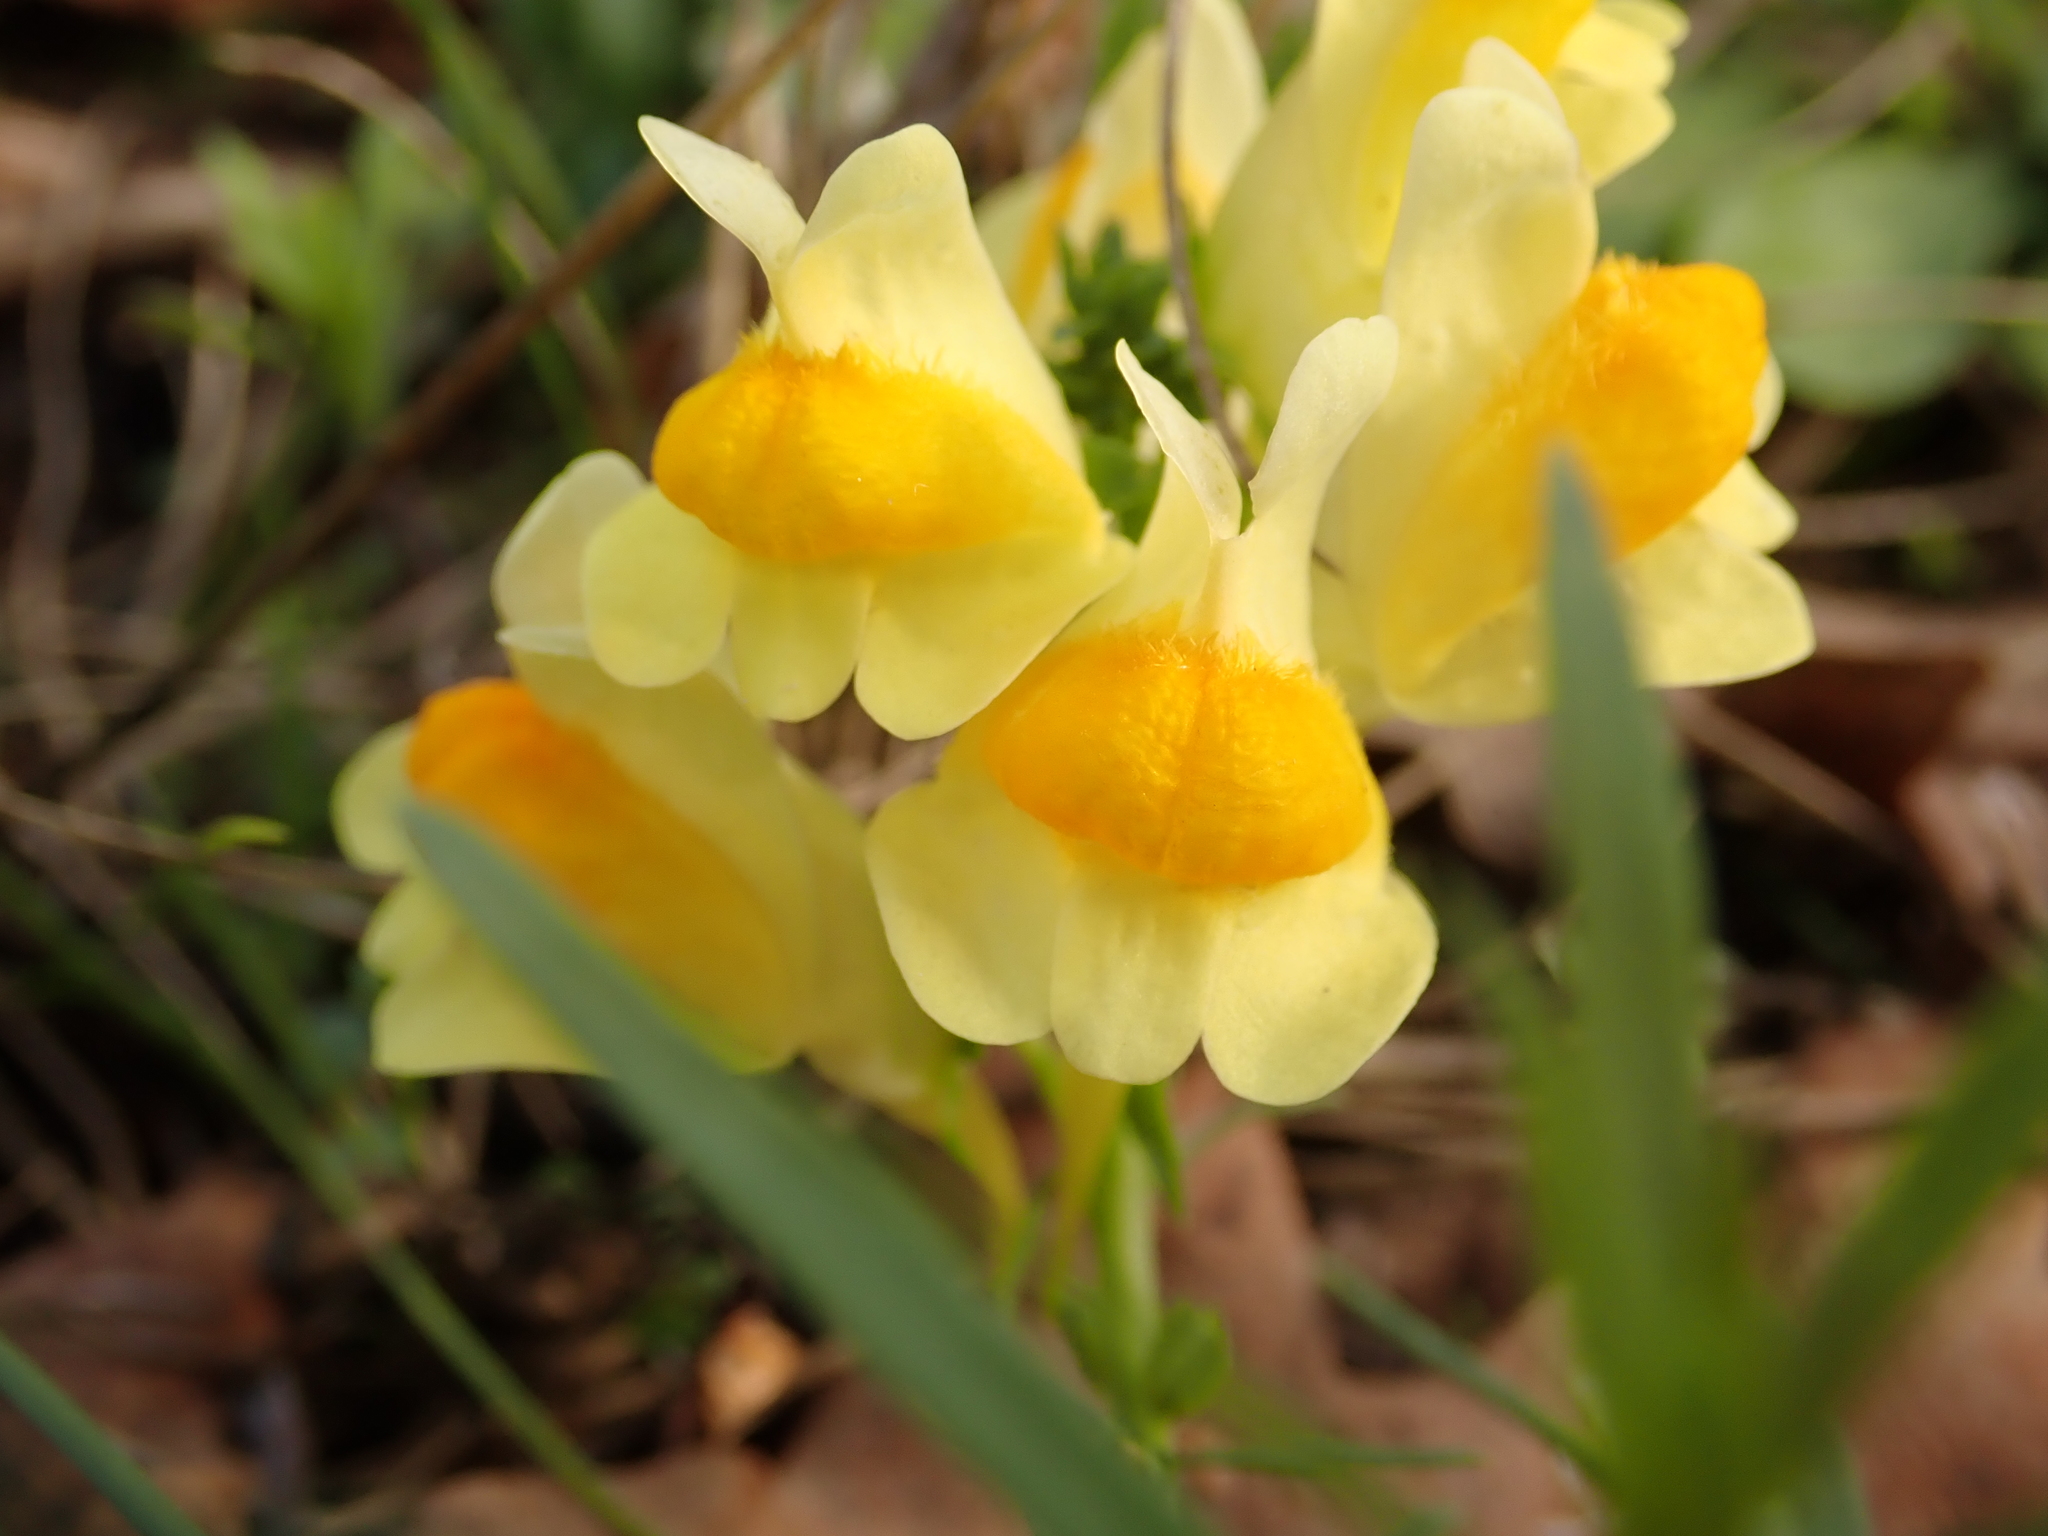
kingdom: Plantae
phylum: Tracheophyta
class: Magnoliopsida
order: Lamiales
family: Plantaginaceae
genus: Linaria
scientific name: Linaria vulgaris
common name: Butter and eggs
